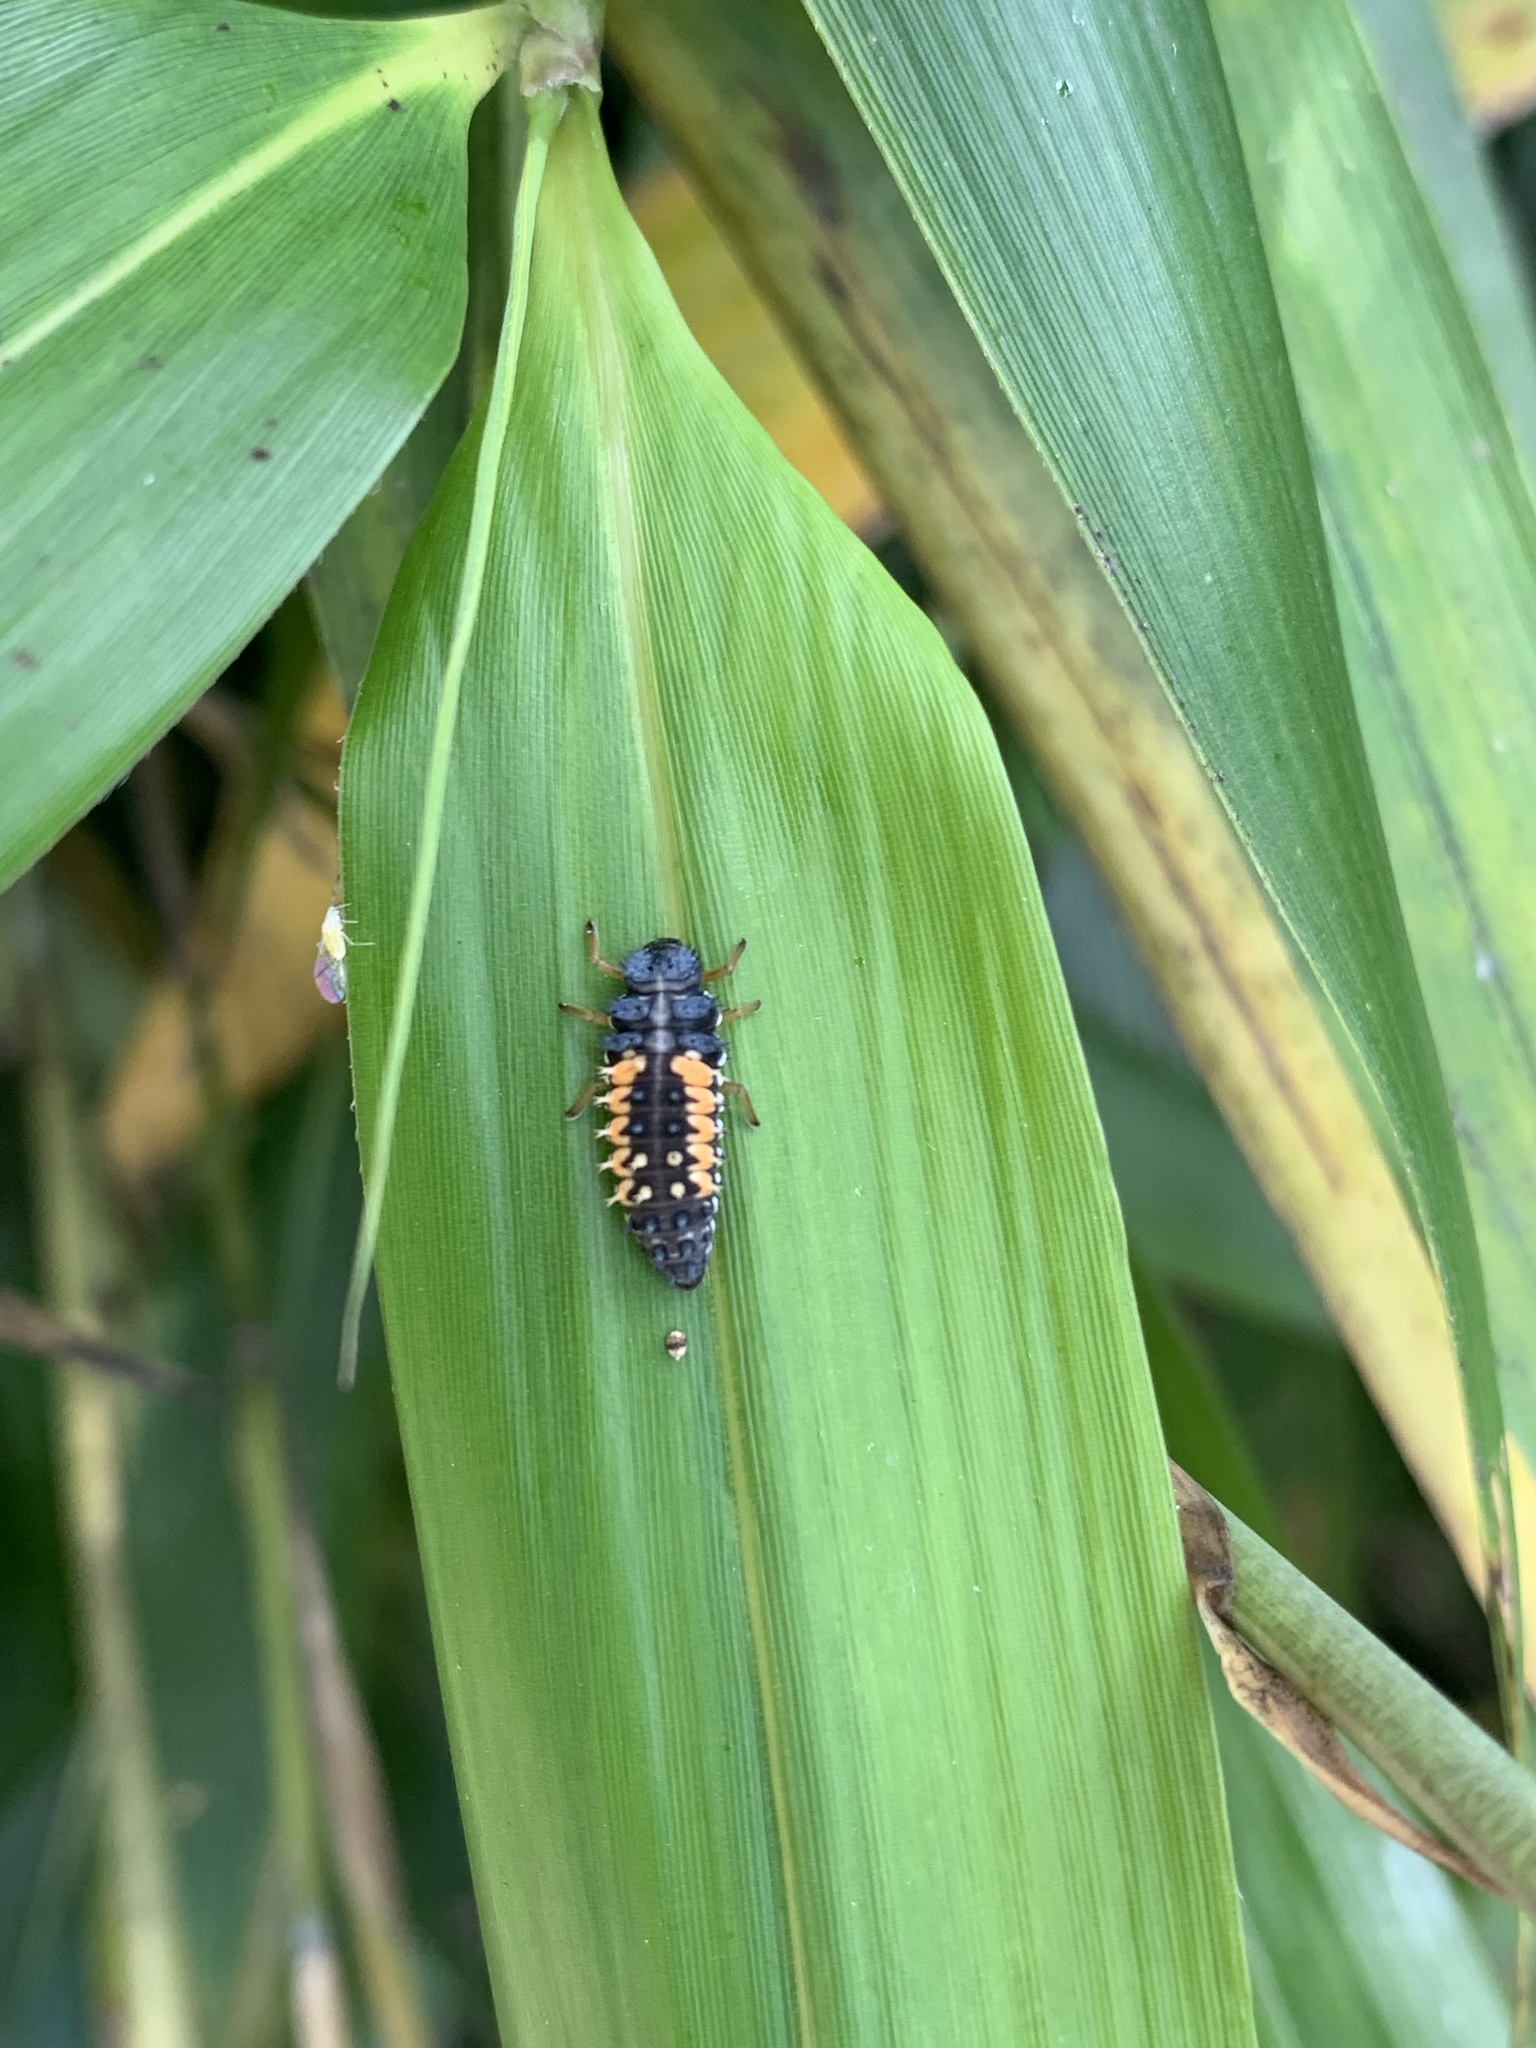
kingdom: Animalia
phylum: Arthropoda
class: Insecta
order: Coleoptera
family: Coccinellidae
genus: Harmonia
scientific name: Harmonia axyridis
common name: Harlequin ladybird
